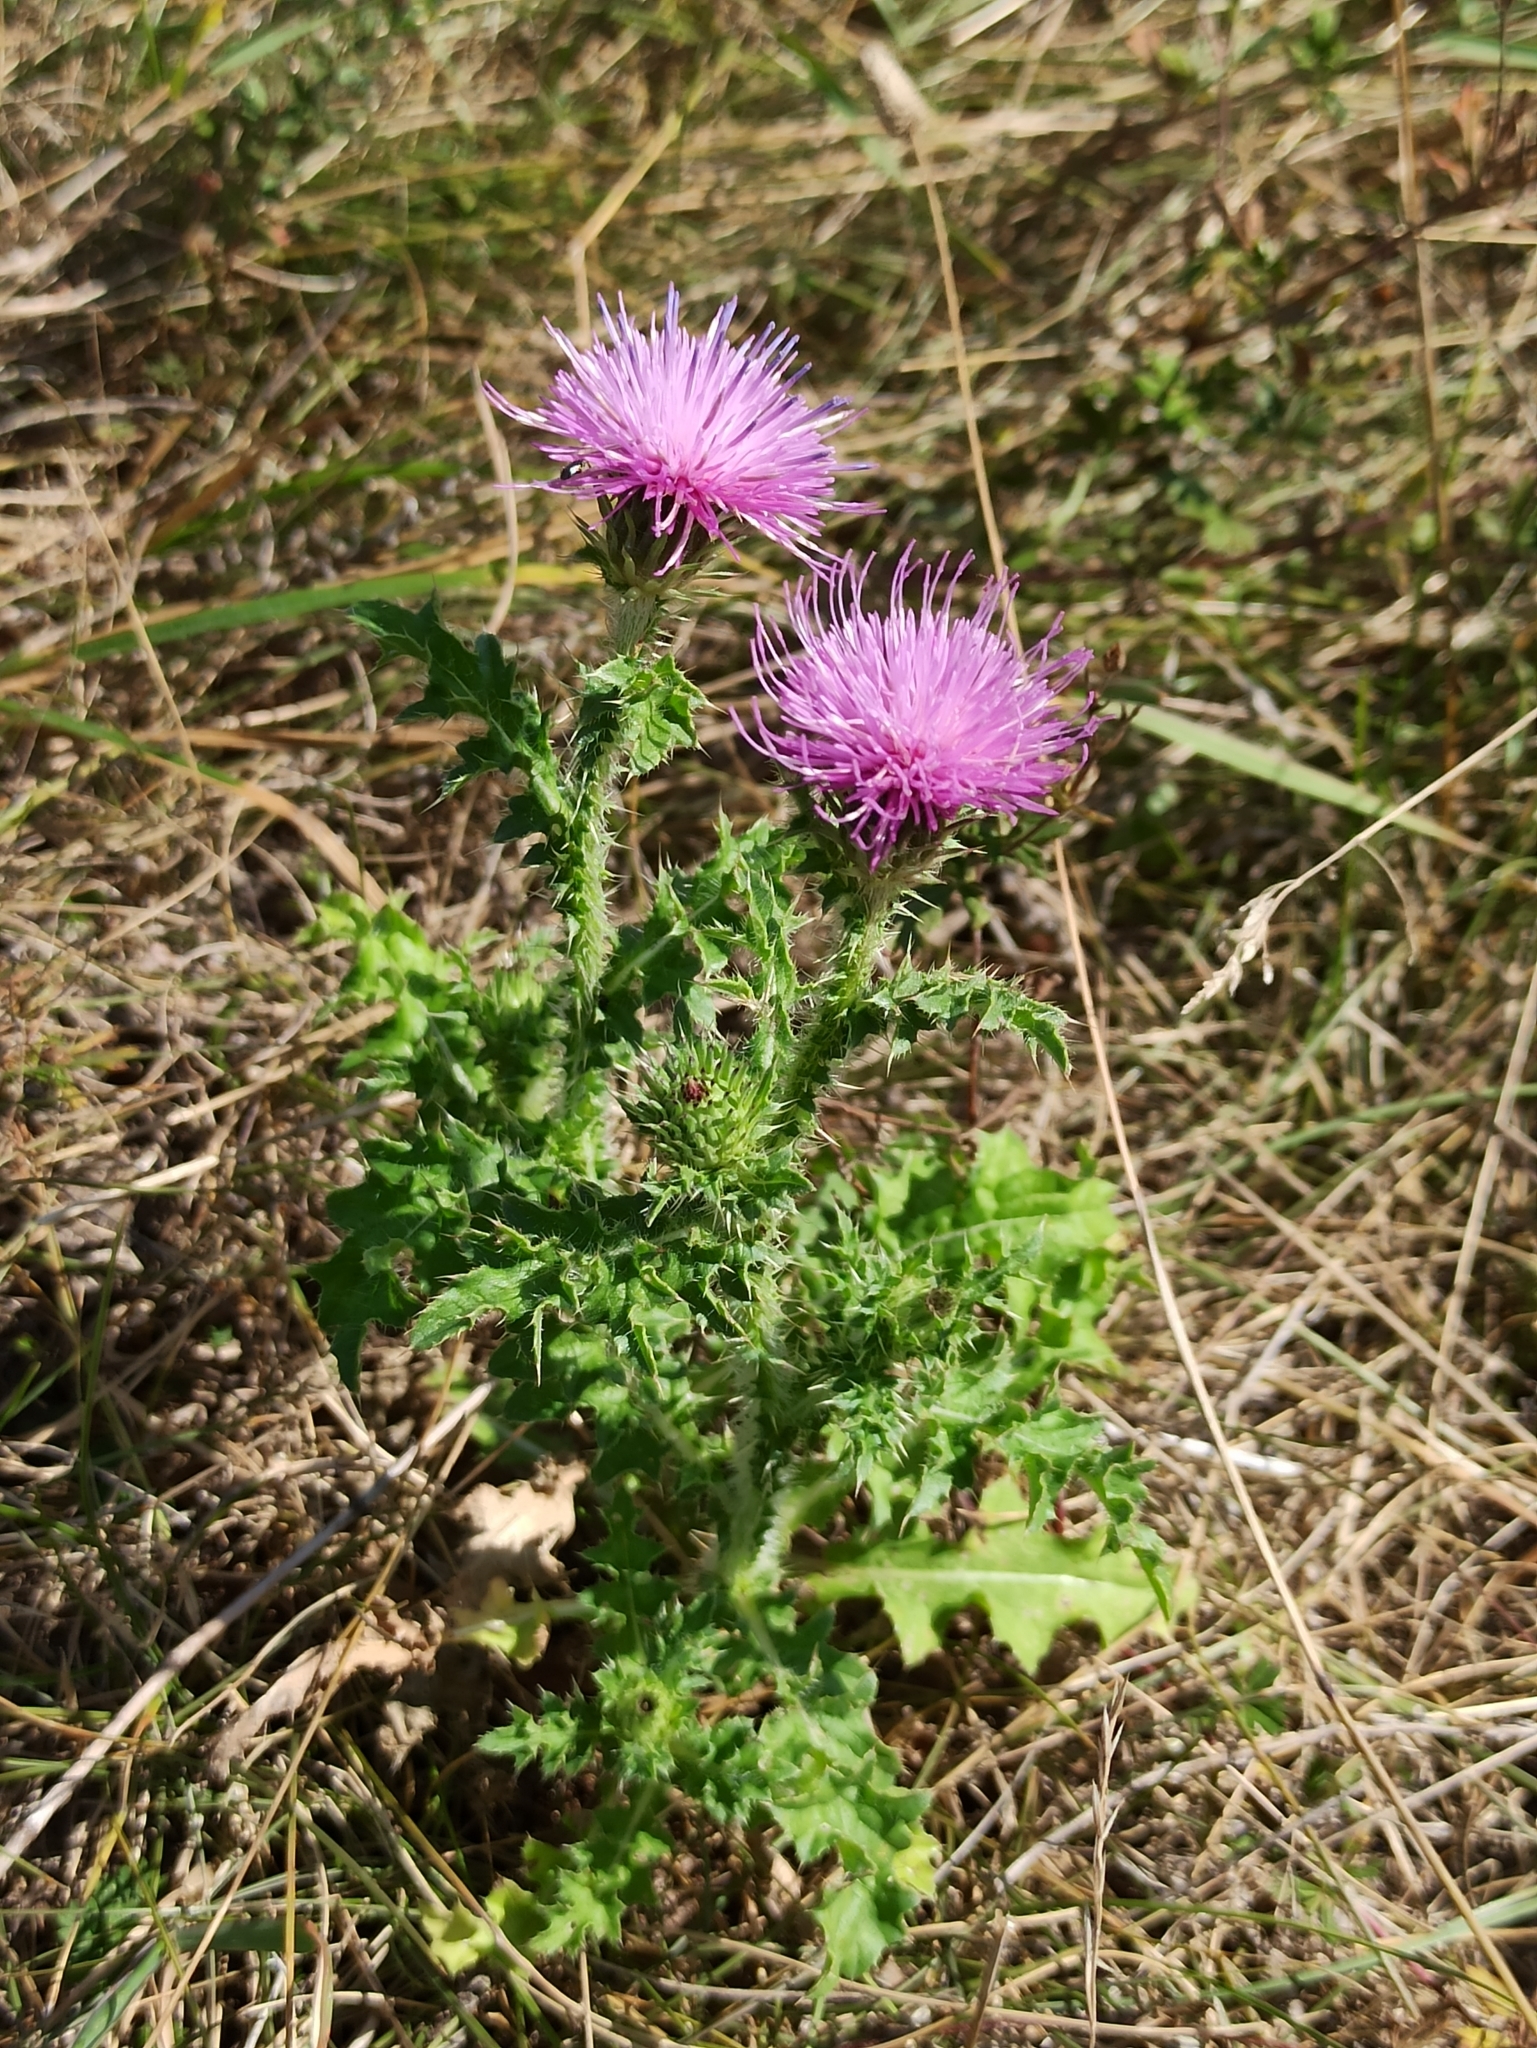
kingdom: Plantae
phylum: Tracheophyta
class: Magnoliopsida
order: Asterales
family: Asteraceae
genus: Carduus
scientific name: Carduus acanthoides
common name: Plumeless thistle
